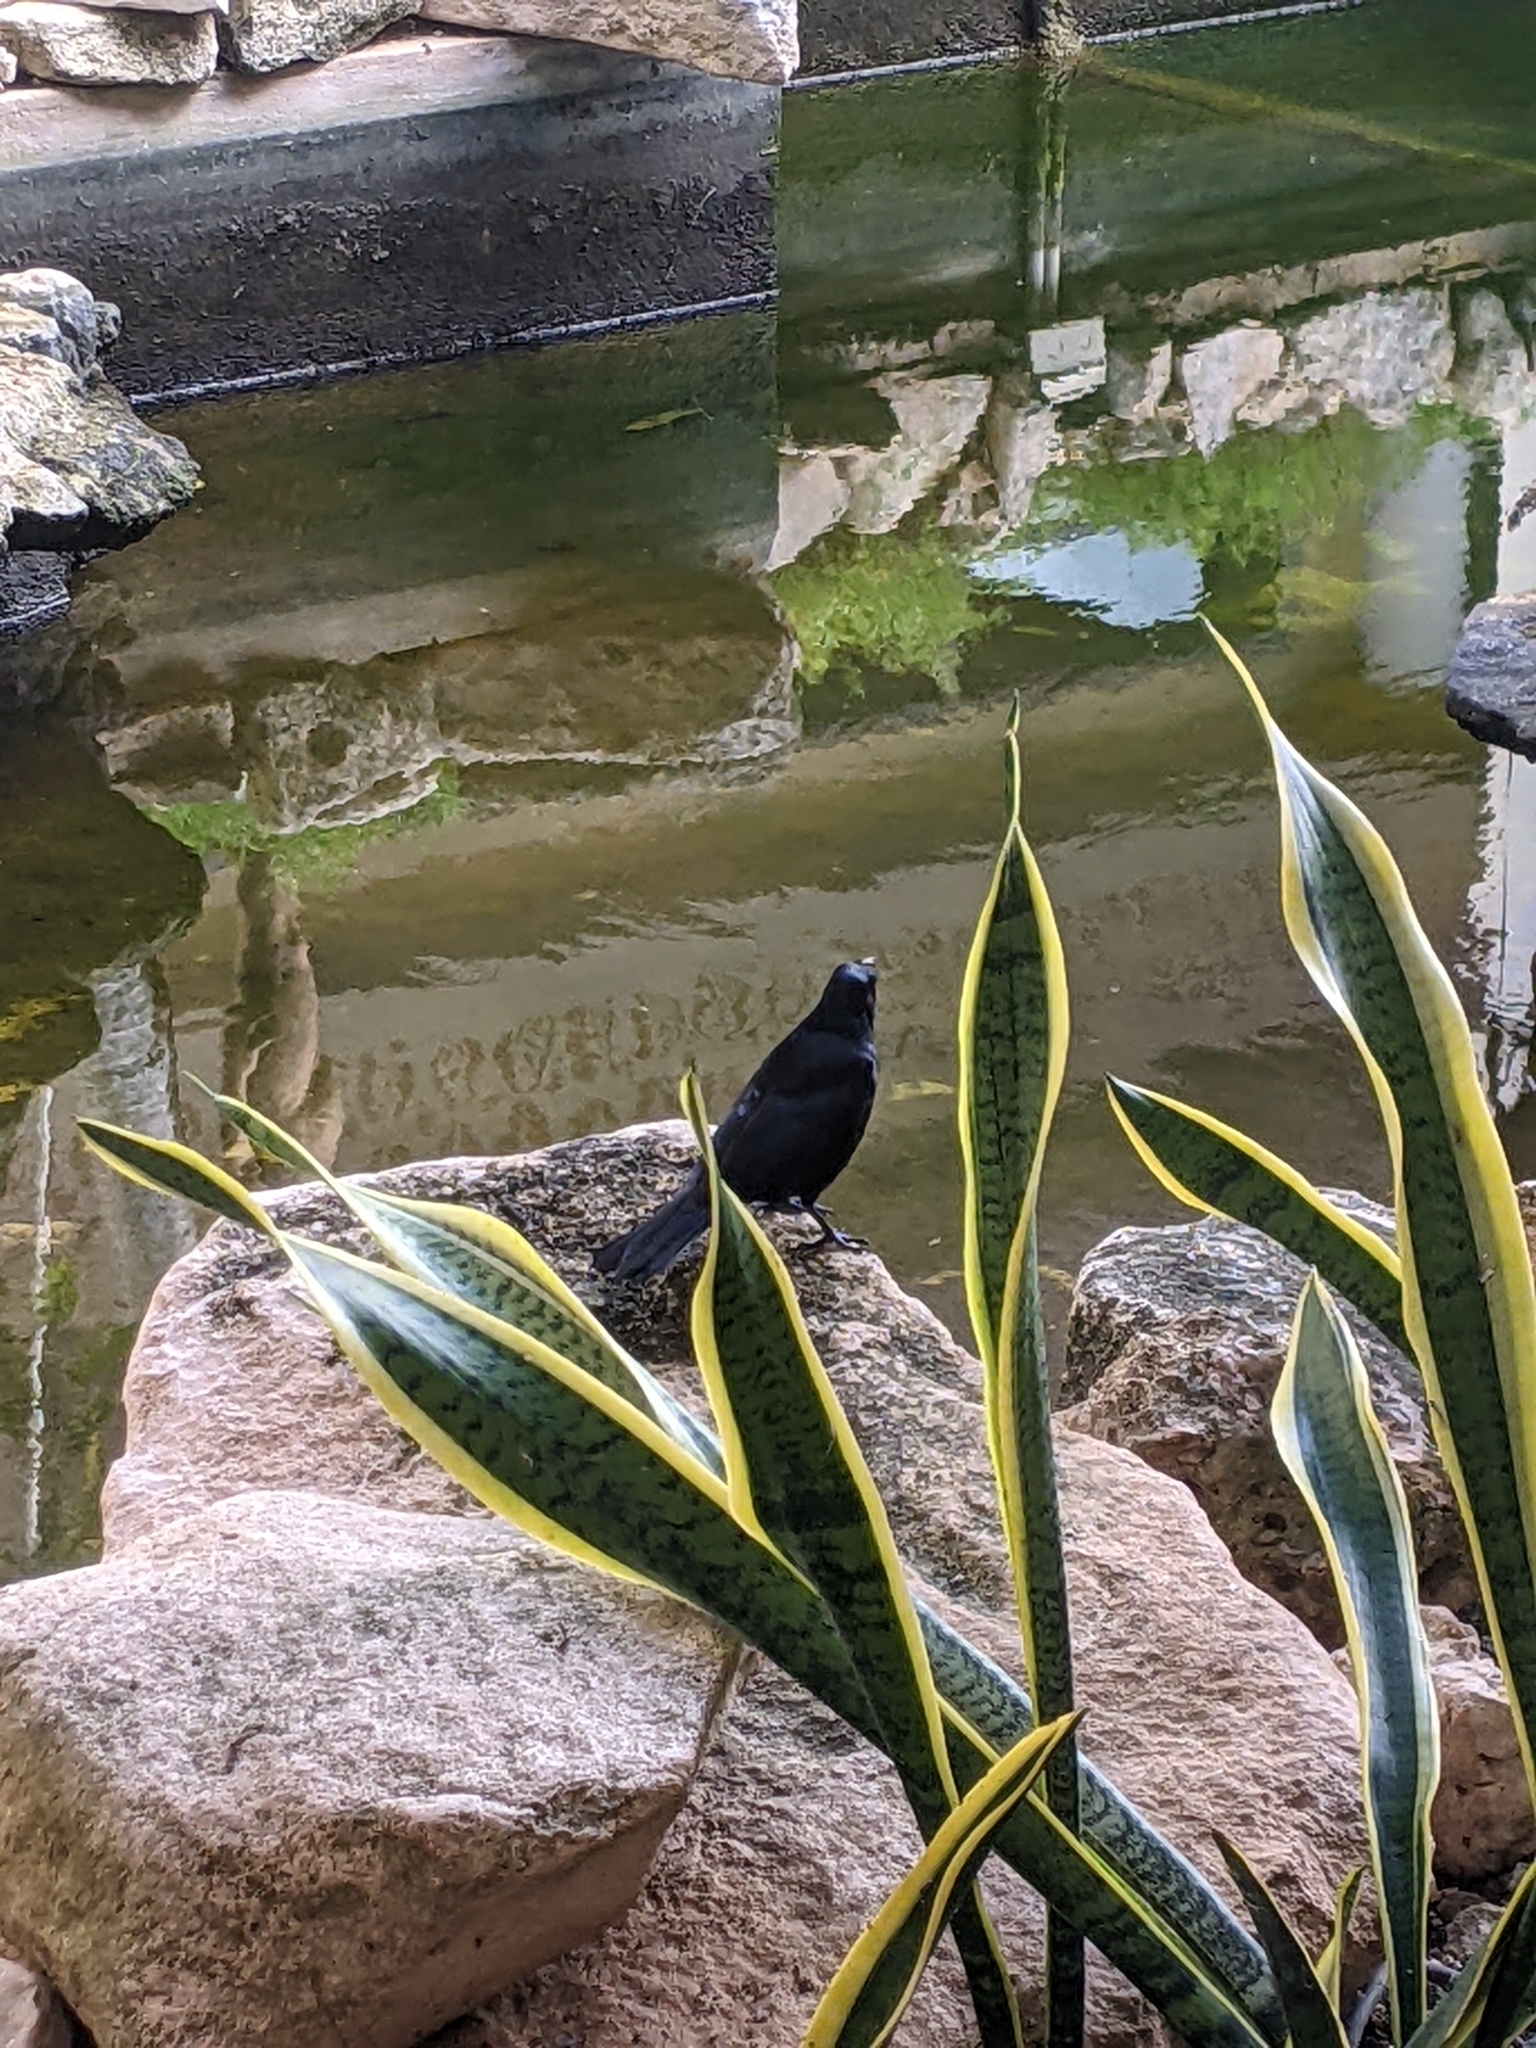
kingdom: Animalia
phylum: Chordata
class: Aves
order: Passeriformes
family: Icteridae
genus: Quiscalus
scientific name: Quiscalus niger
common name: Greater antillean grackle
